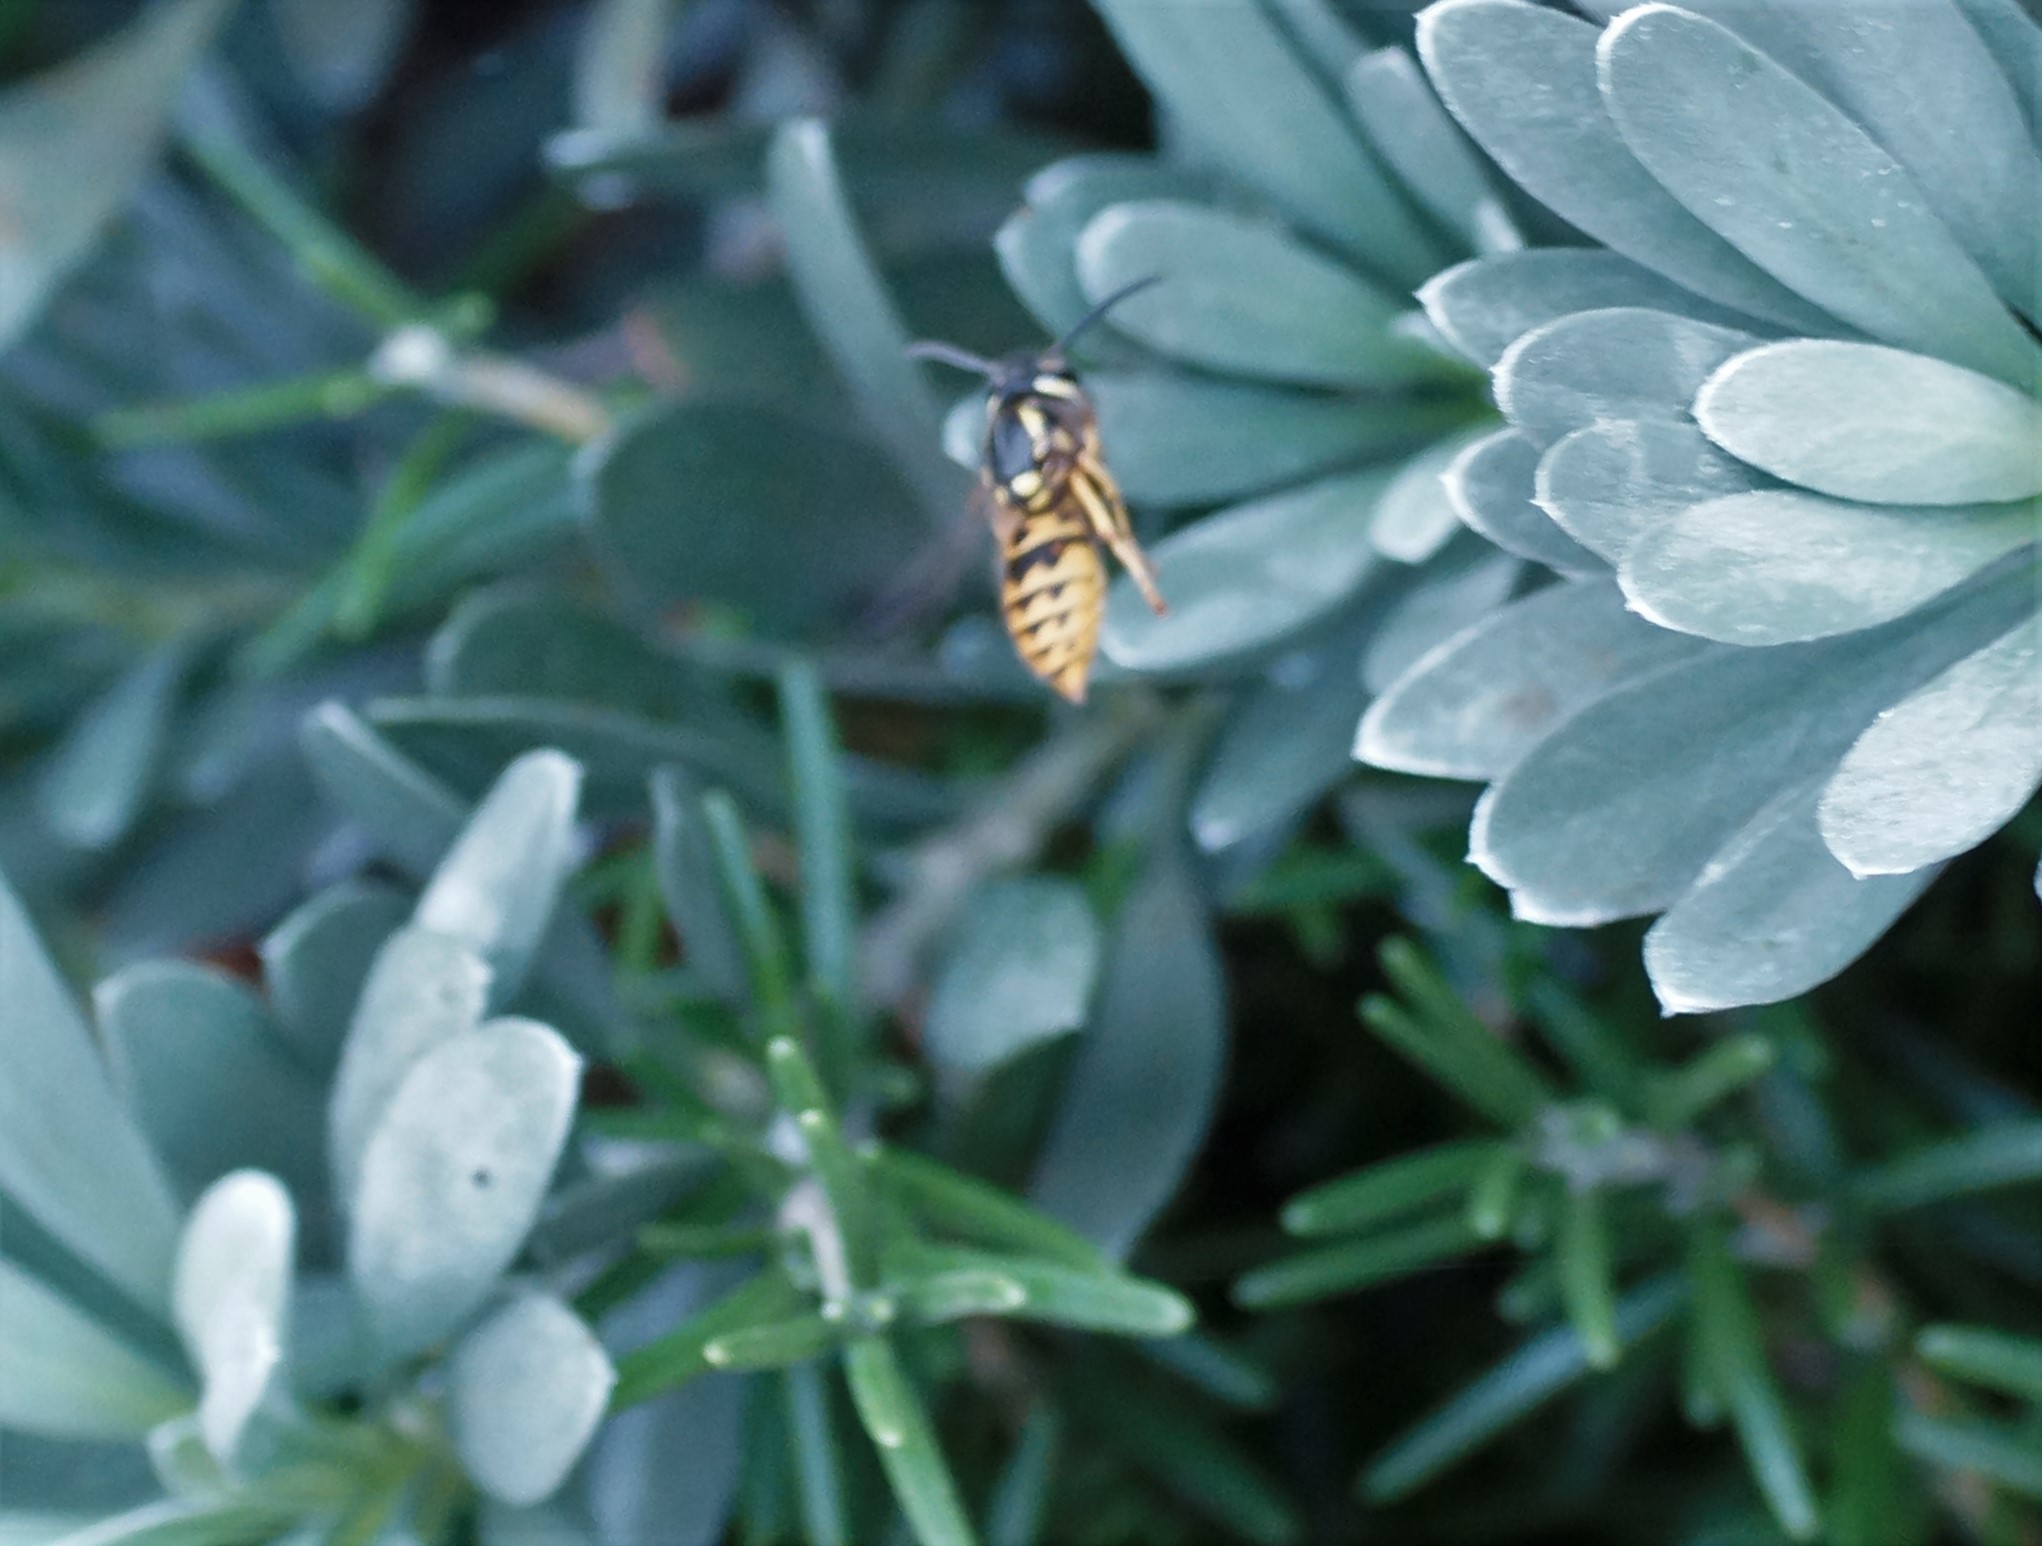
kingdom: Animalia
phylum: Arthropoda
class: Insecta
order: Hymenoptera
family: Vespidae
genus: Vespula
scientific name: Vespula germanica
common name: German wasp
